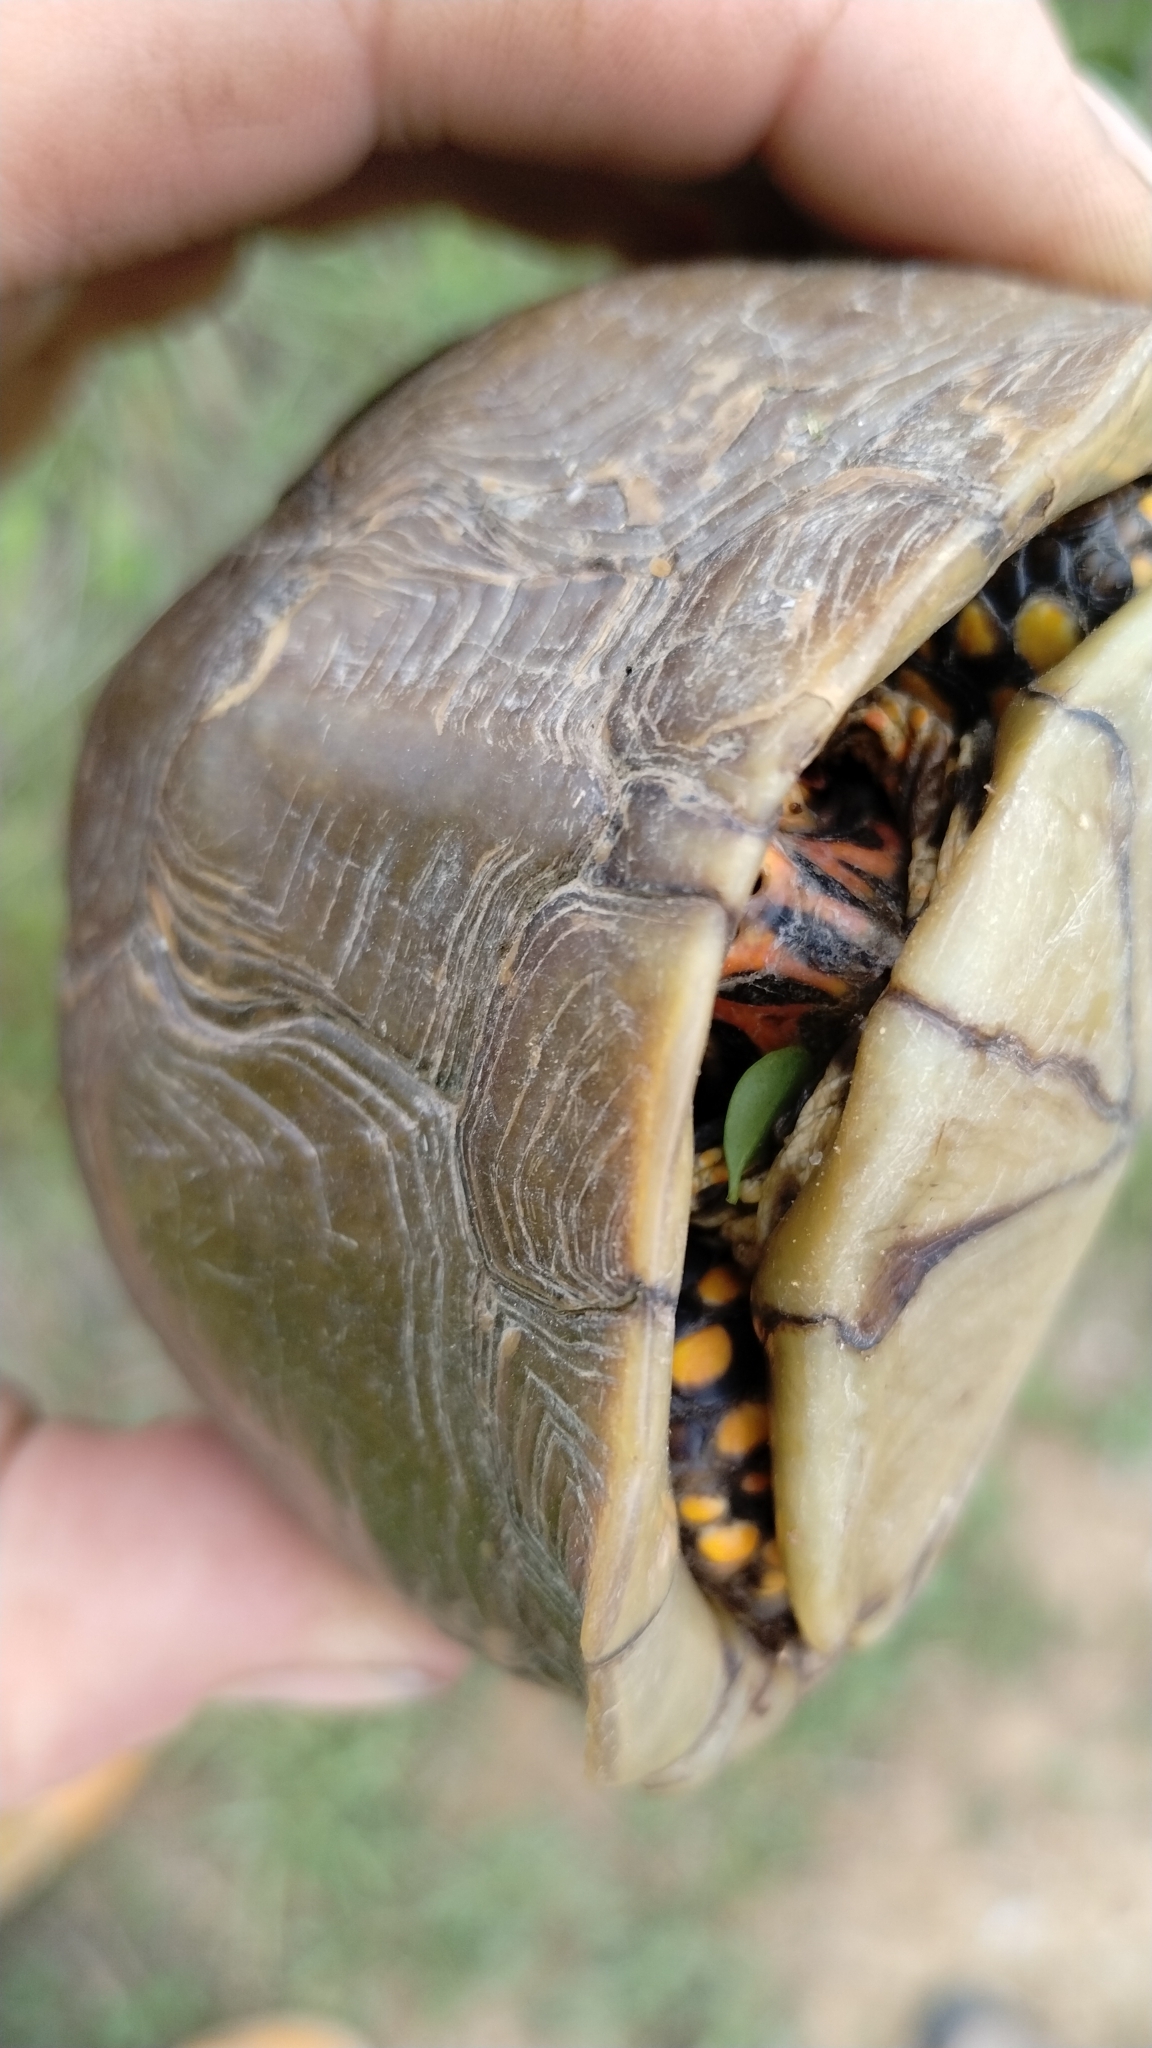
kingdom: Animalia
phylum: Chordata
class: Testudines
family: Emydidae
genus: Terrapene
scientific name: Terrapene carolina
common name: Common box turtle
